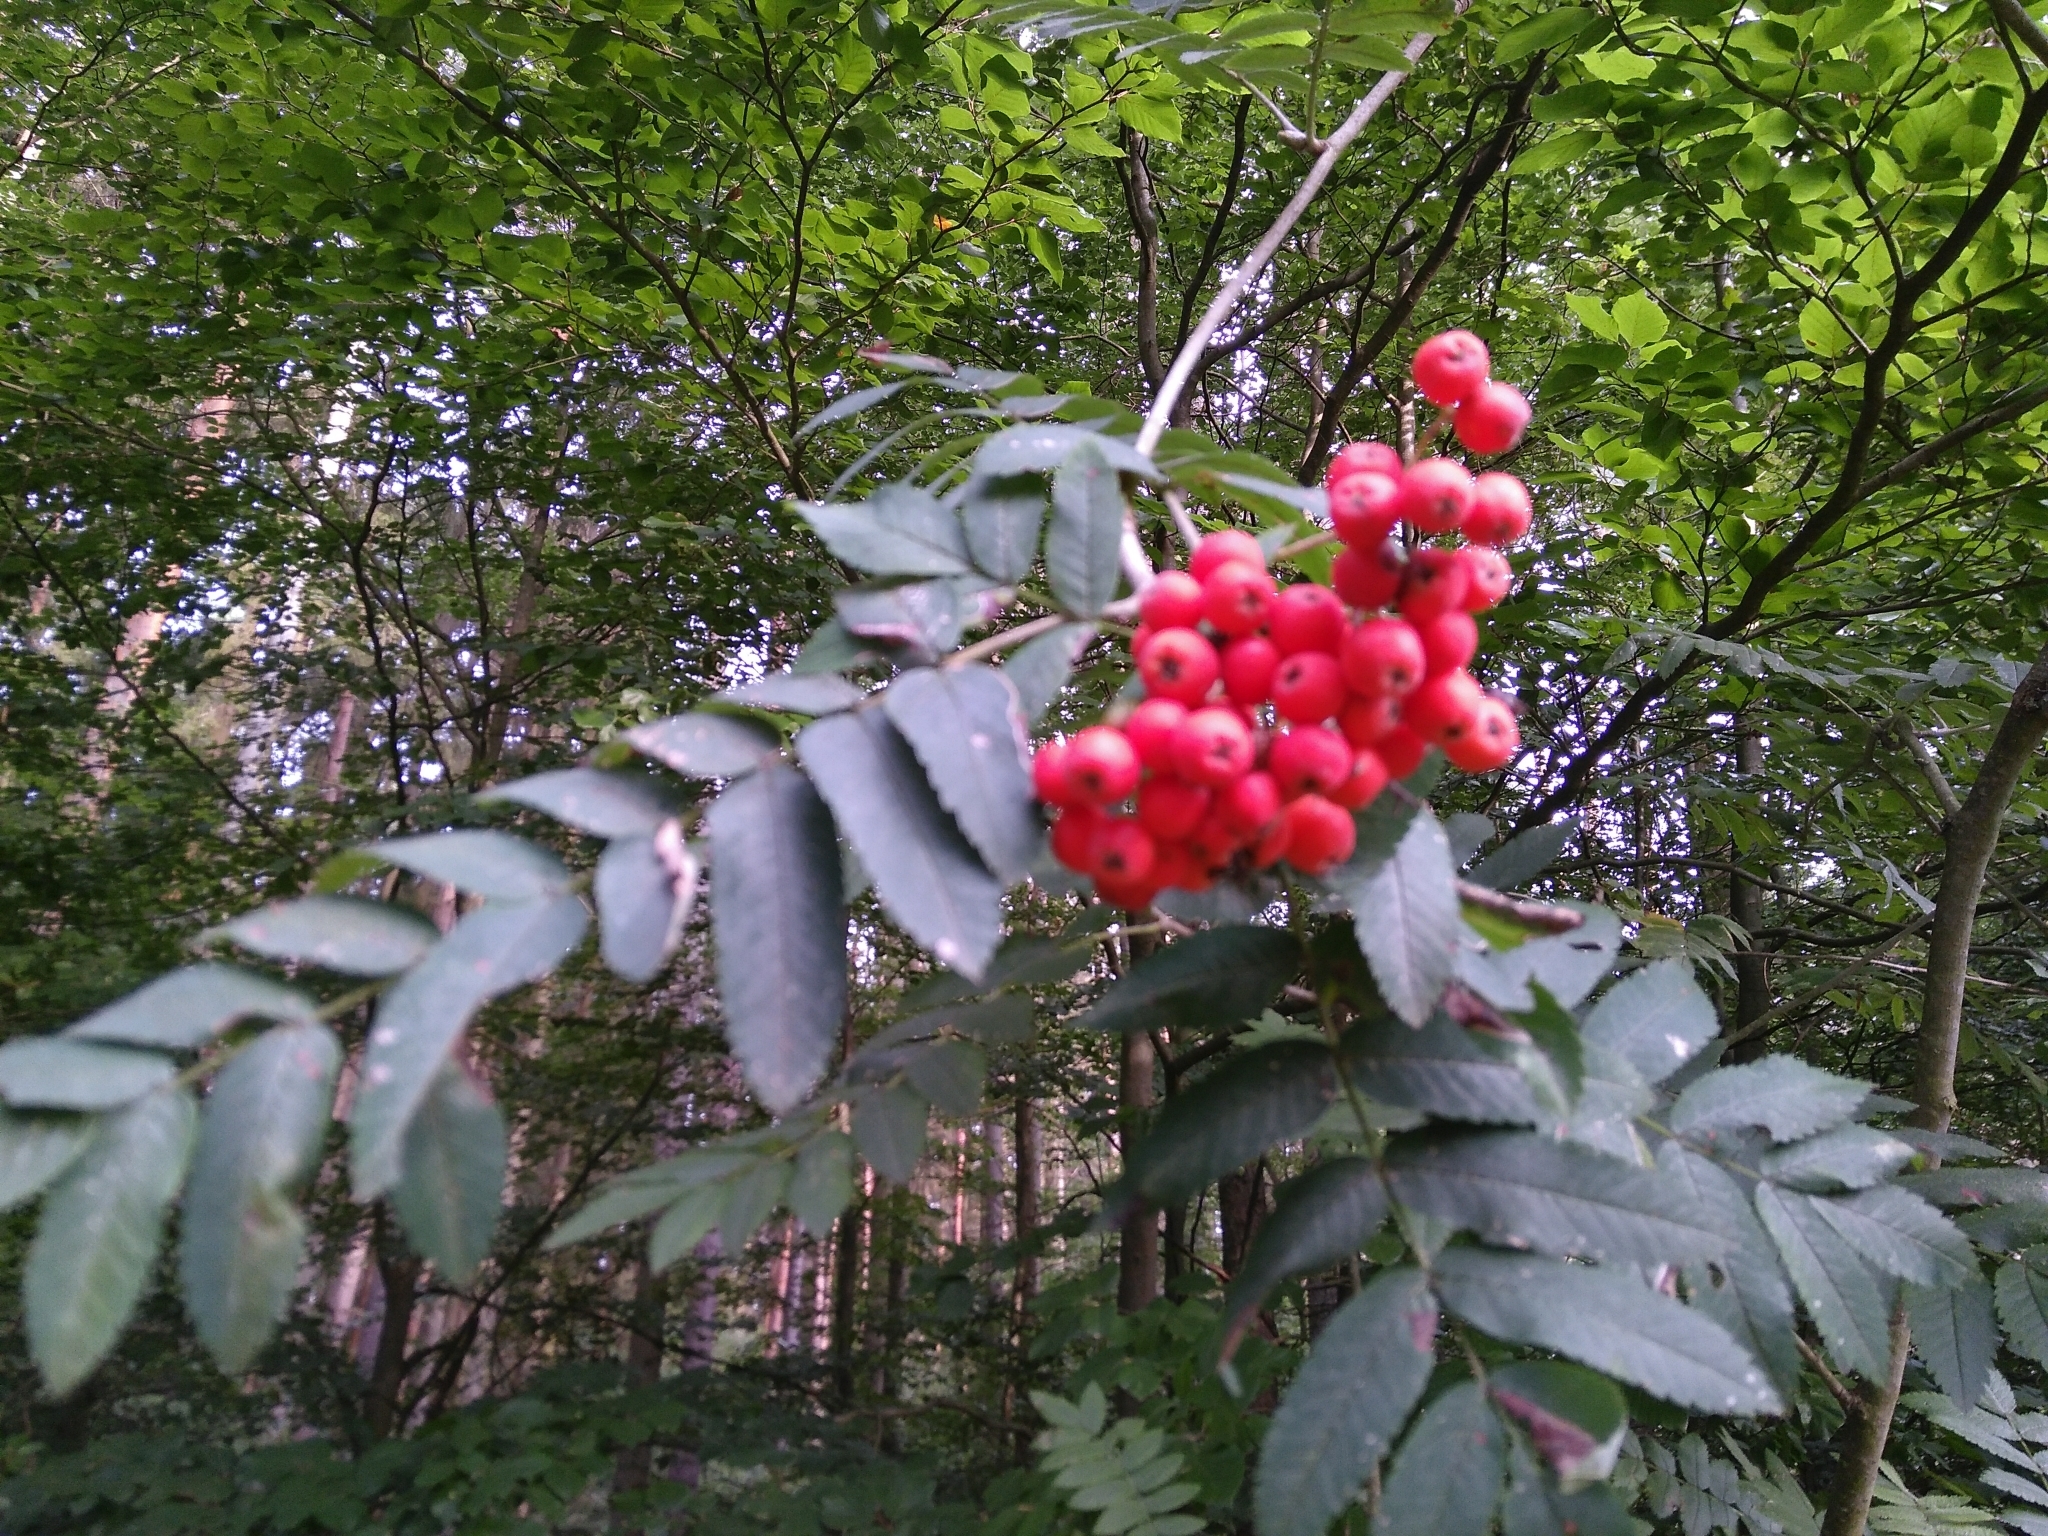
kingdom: Plantae
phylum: Tracheophyta
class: Magnoliopsida
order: Rosales
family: Rosaceae
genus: Sorbus
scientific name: Sorbus aucuparia
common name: Rowan
